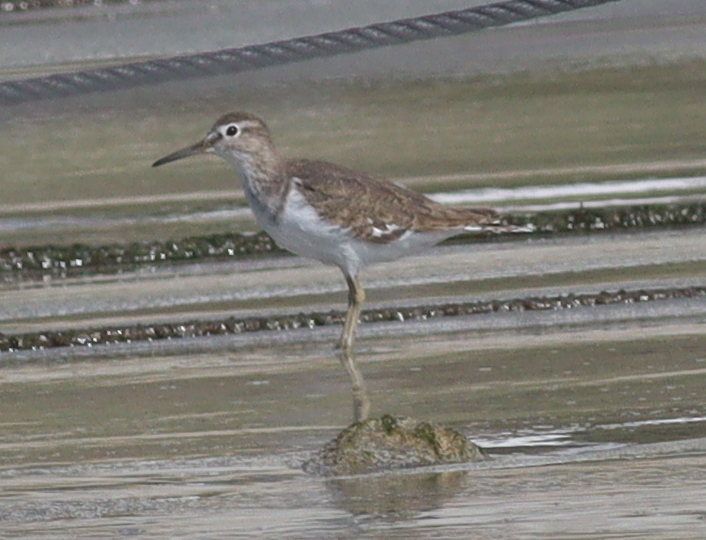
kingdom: Animalia
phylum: Chordata
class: Aves
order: Charadriiformes
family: Scolopacidae
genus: Actitis
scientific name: Actitis hypoleucos
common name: Common sandpiper
